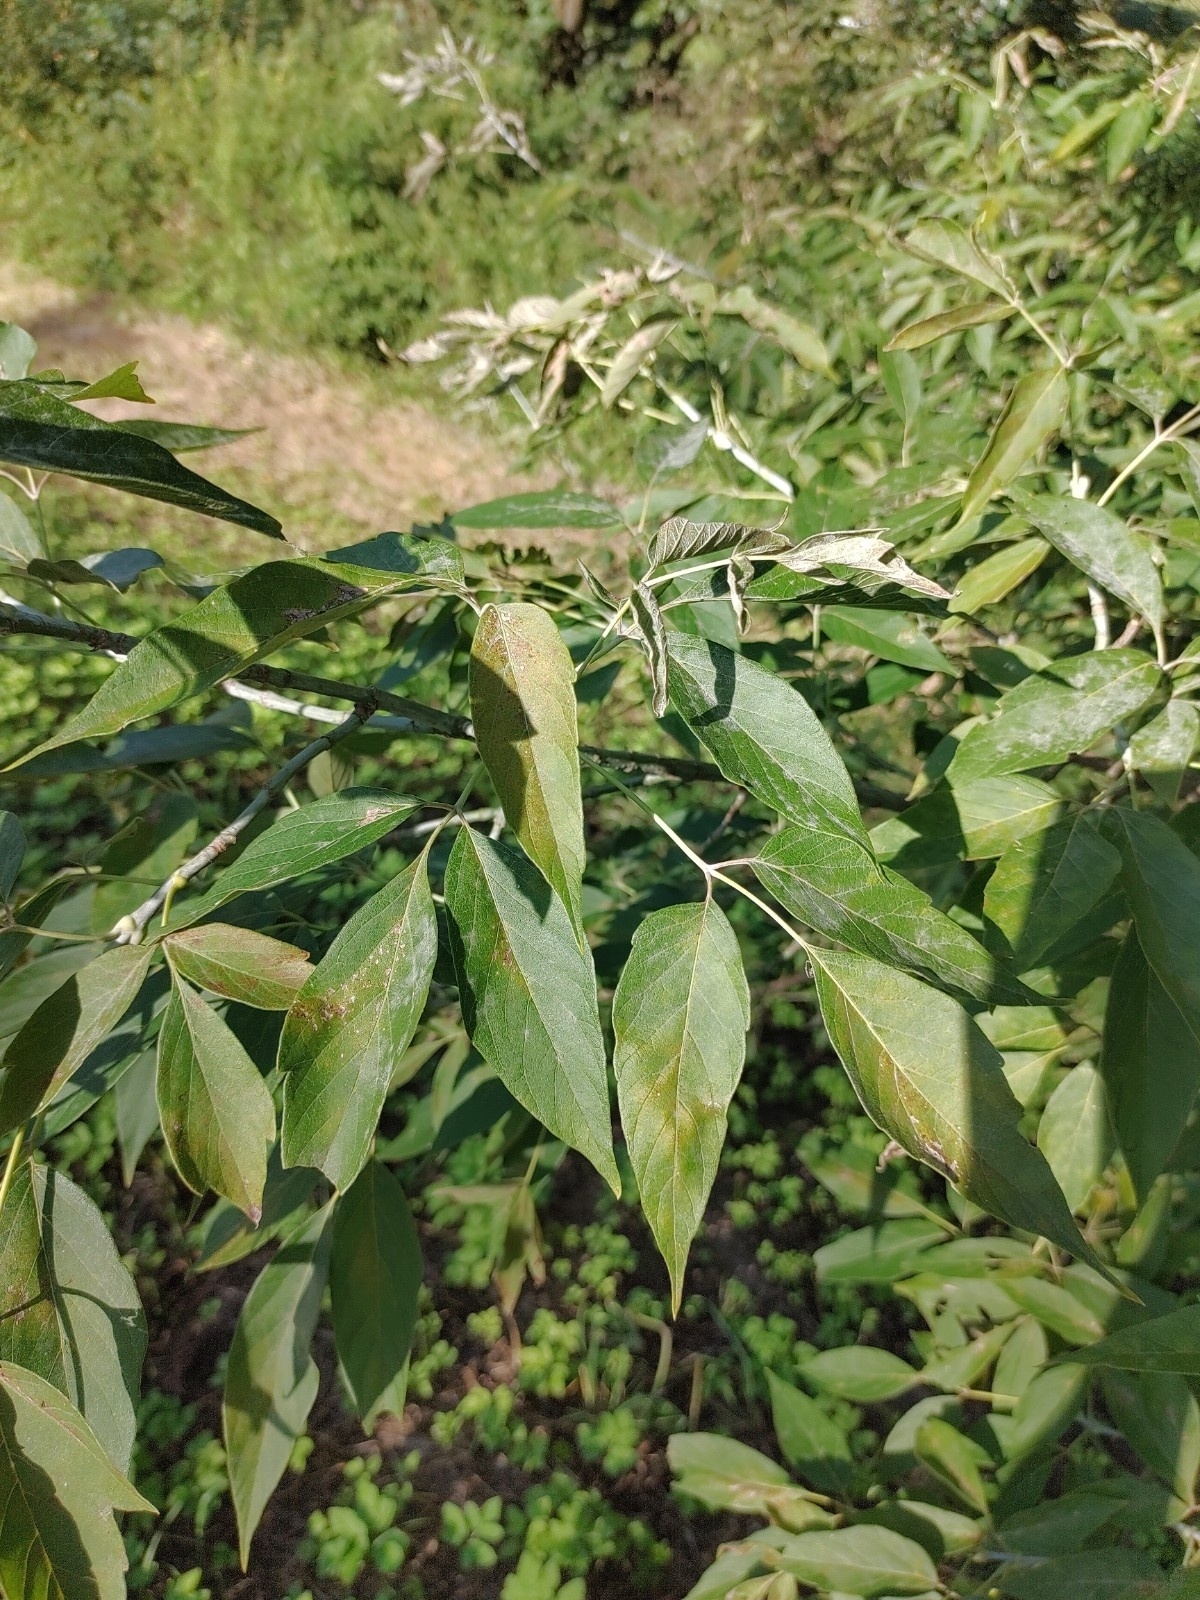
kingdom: Plantae
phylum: Tracheophyta
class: Magnoliopsida
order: Sapindales
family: Sapindaceae
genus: Acer
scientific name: Acer negundo
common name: Ashleaf maple
